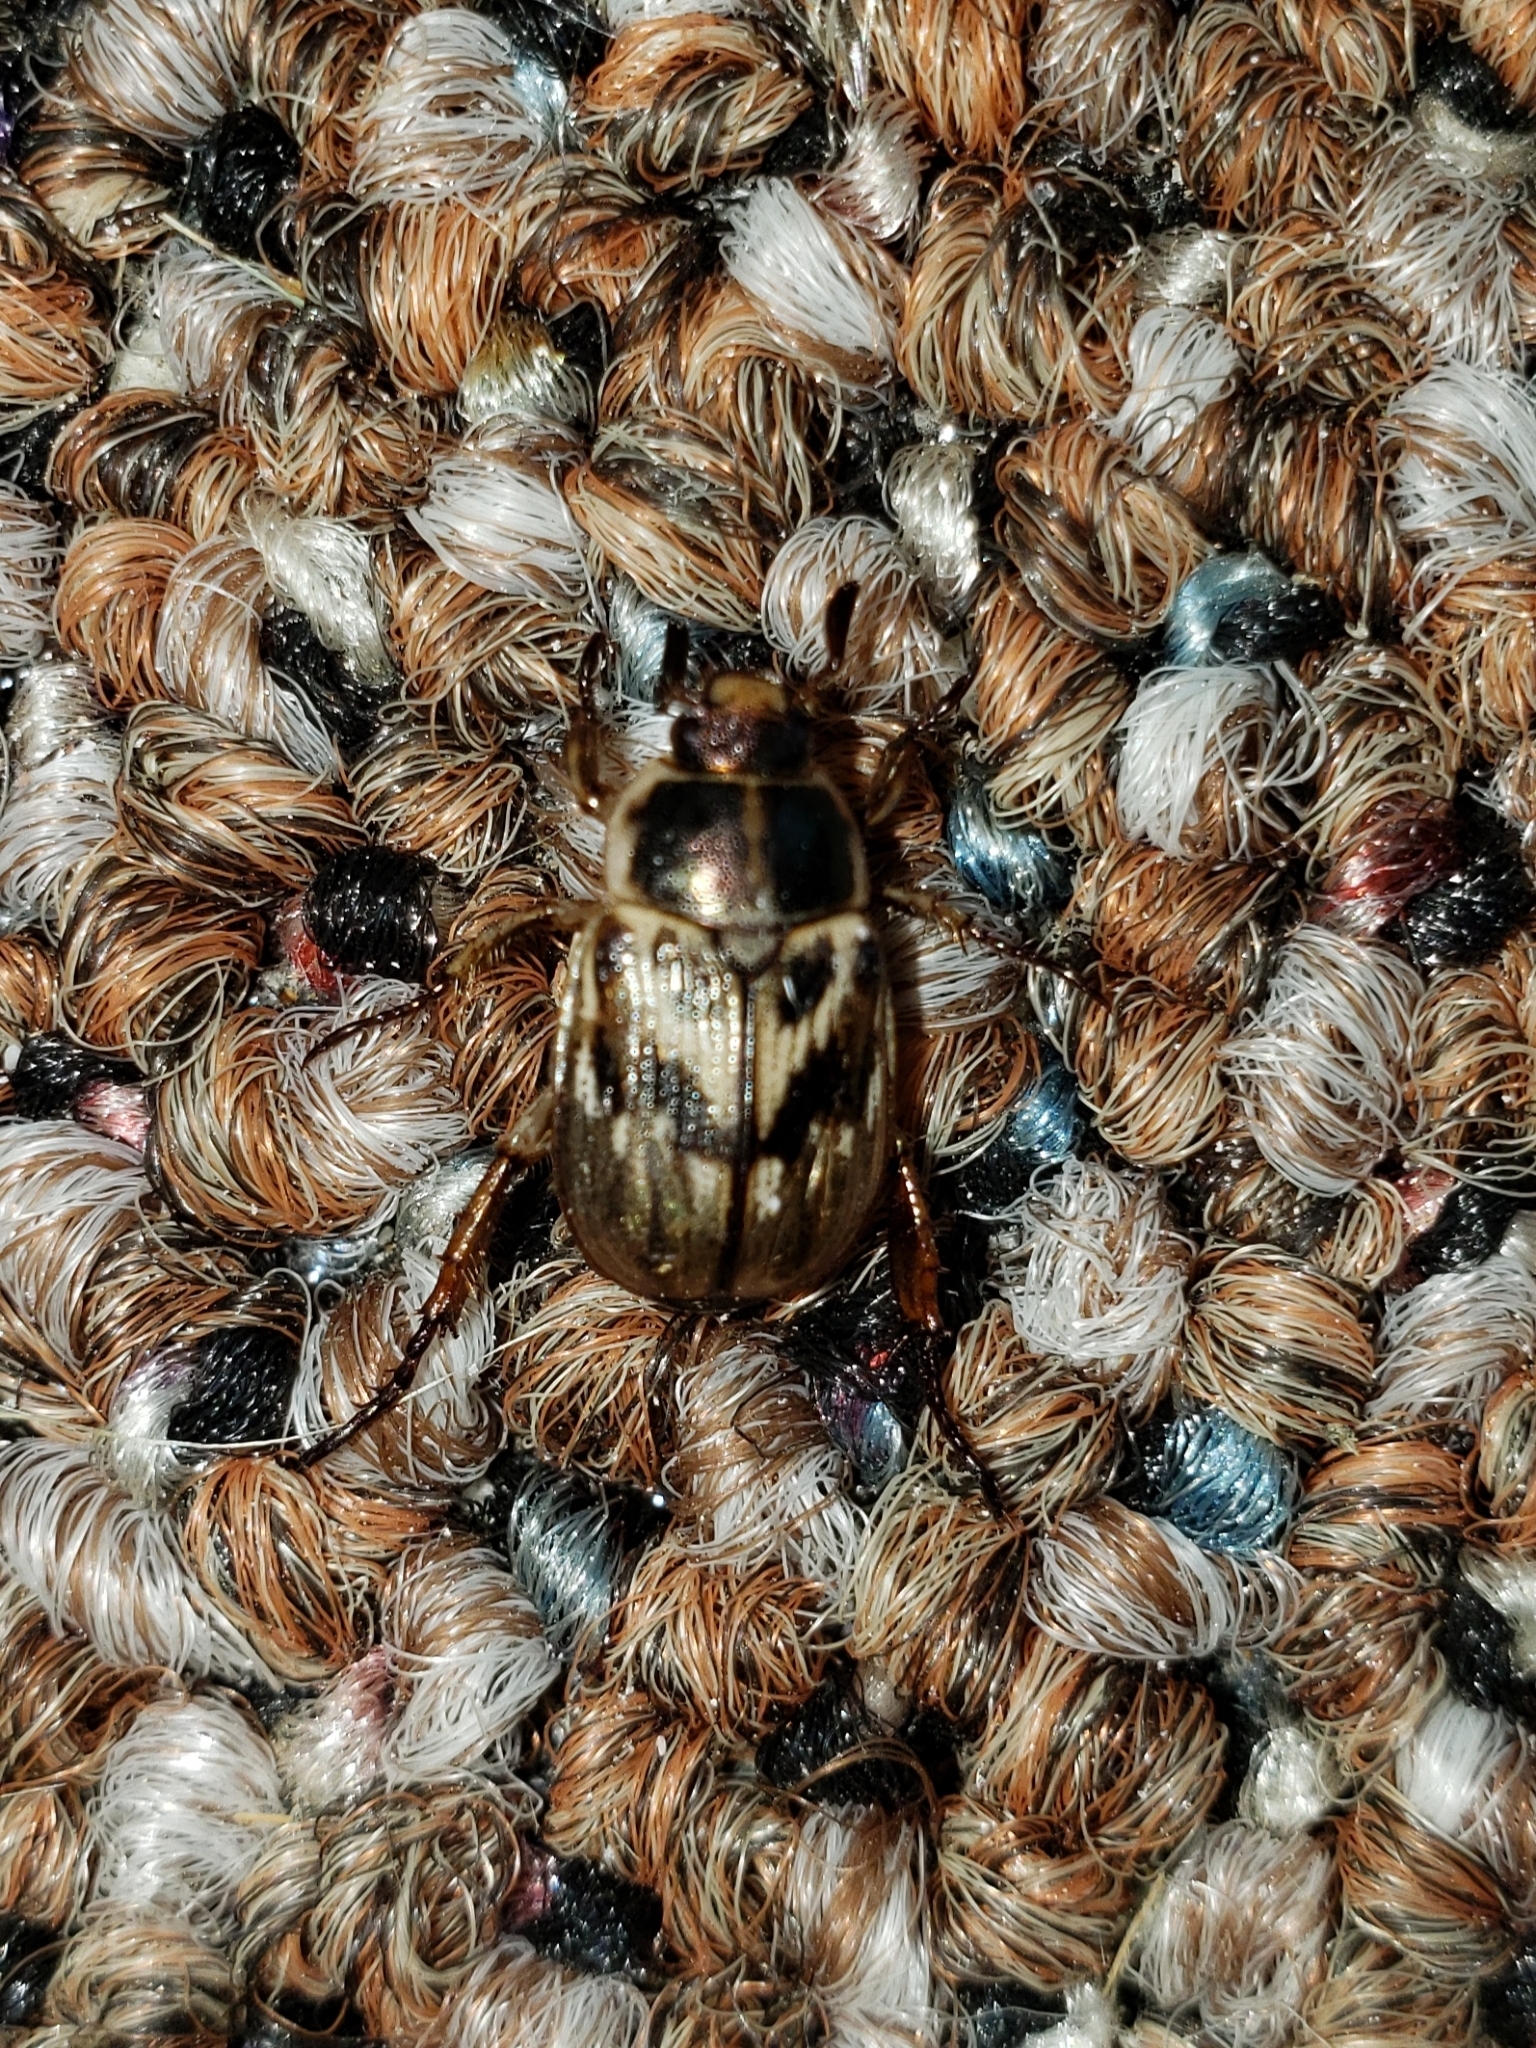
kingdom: Animalia
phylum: Arthropoda
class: Insecta
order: Coleoptera
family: Scarabaeidae
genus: Exomala
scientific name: Exomala orientalis
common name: Oriental beetle
